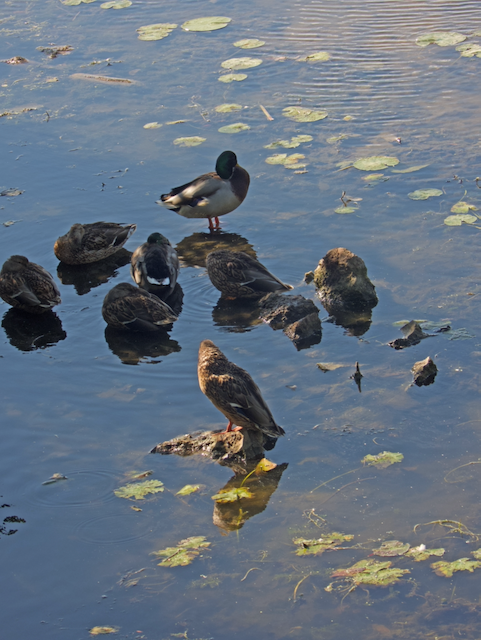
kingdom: Animalia
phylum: Chordata
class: Aves
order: Anseriformes
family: Anatidae
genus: Anas
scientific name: Anas platyrhynchos
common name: Mallard
